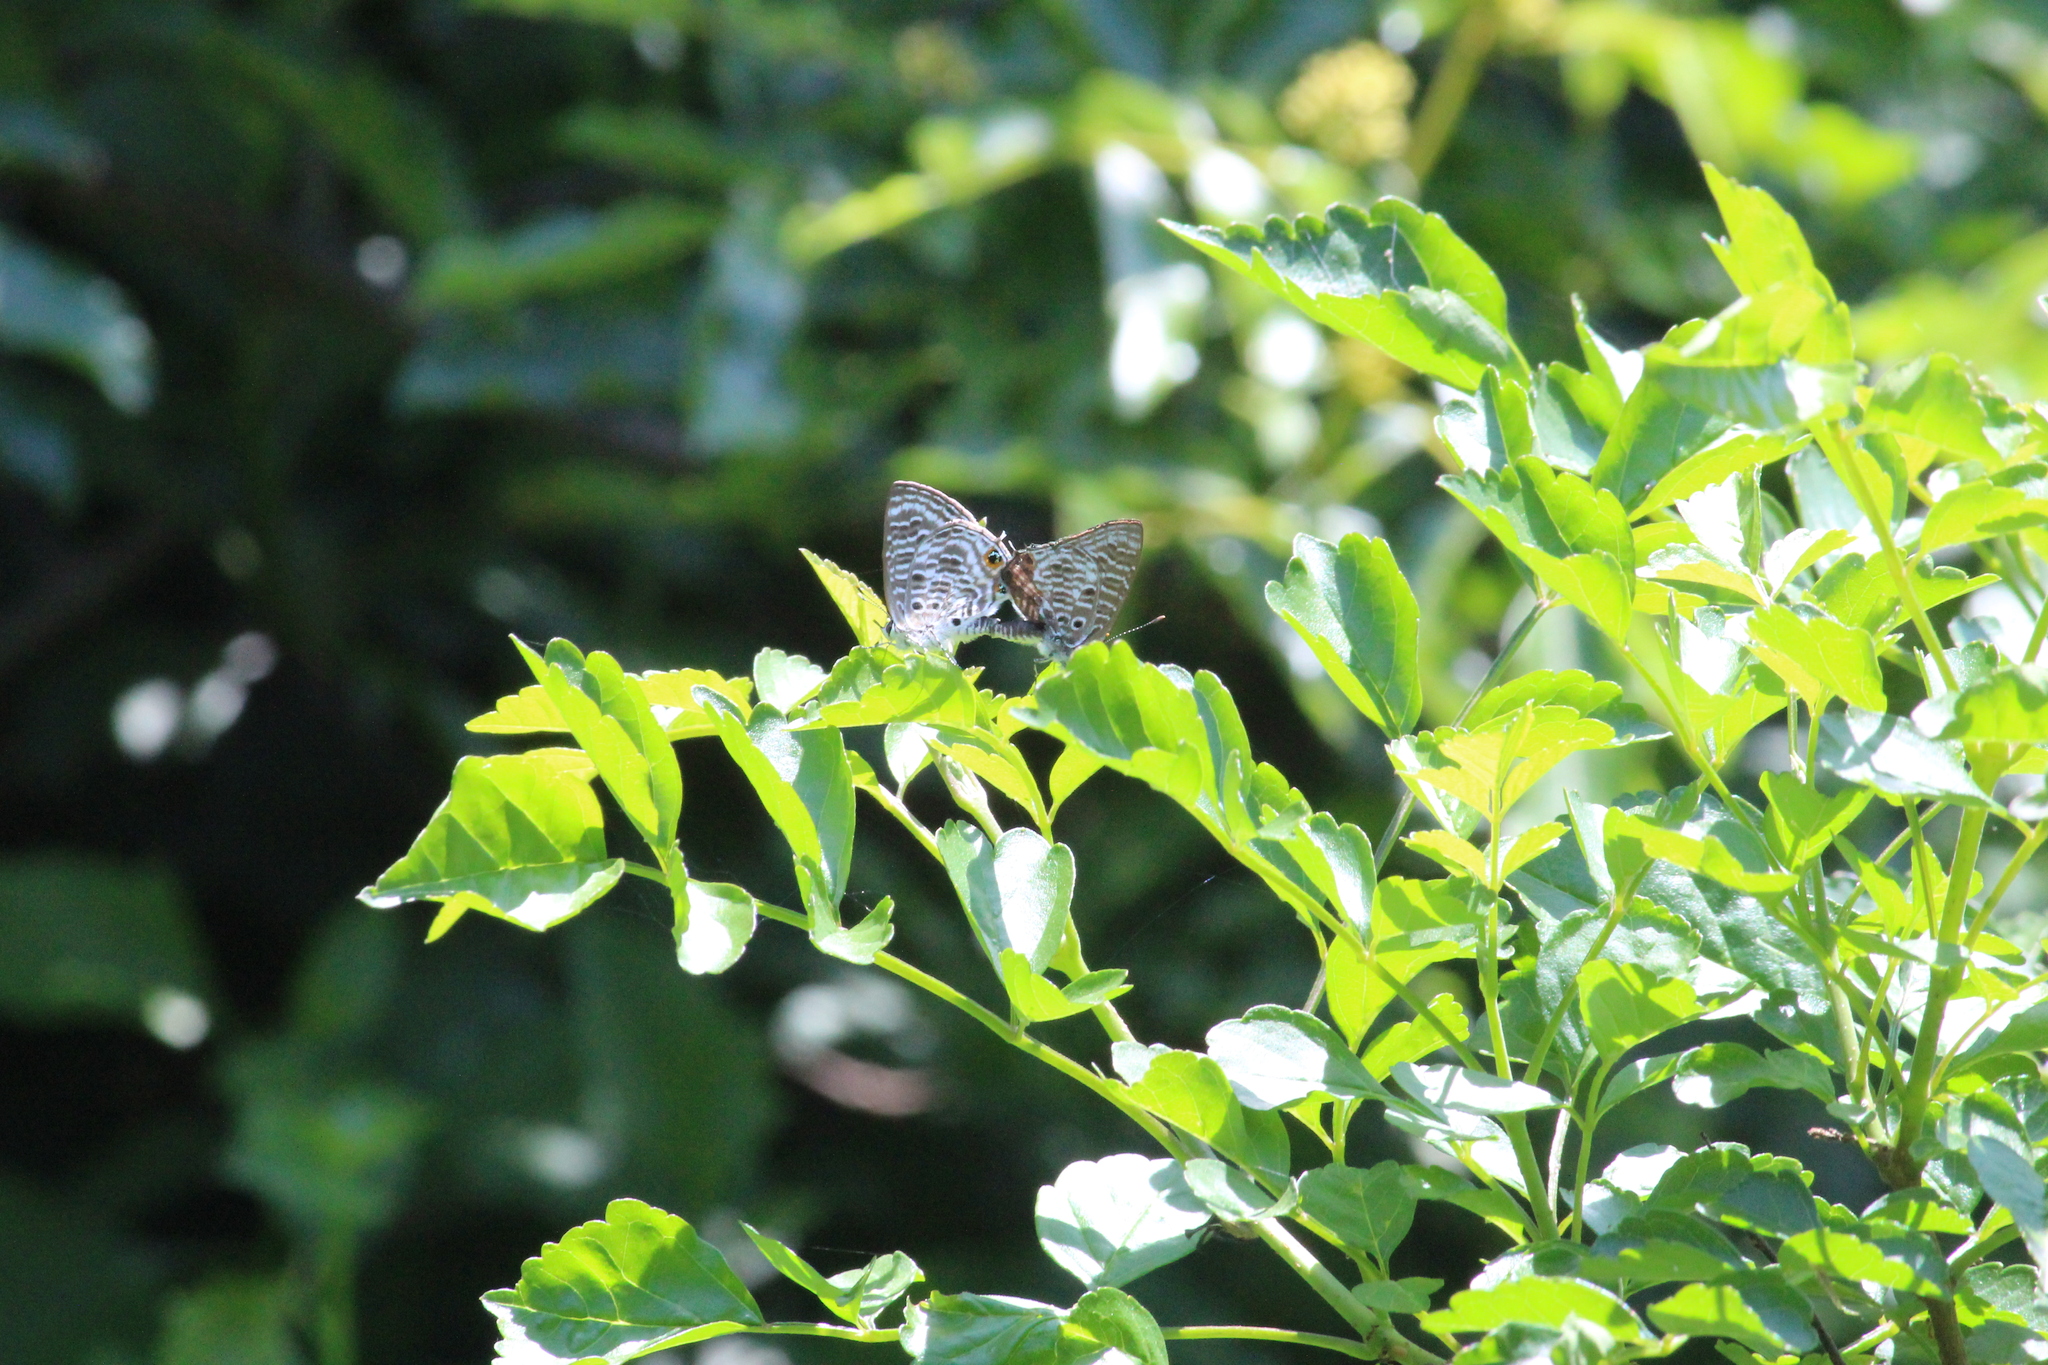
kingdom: Animalia
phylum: Arthropoda
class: Insecta
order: Lepidoptera
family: Lycaenidae
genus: Anthene
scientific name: Anthene larydas
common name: Forest hairtail
